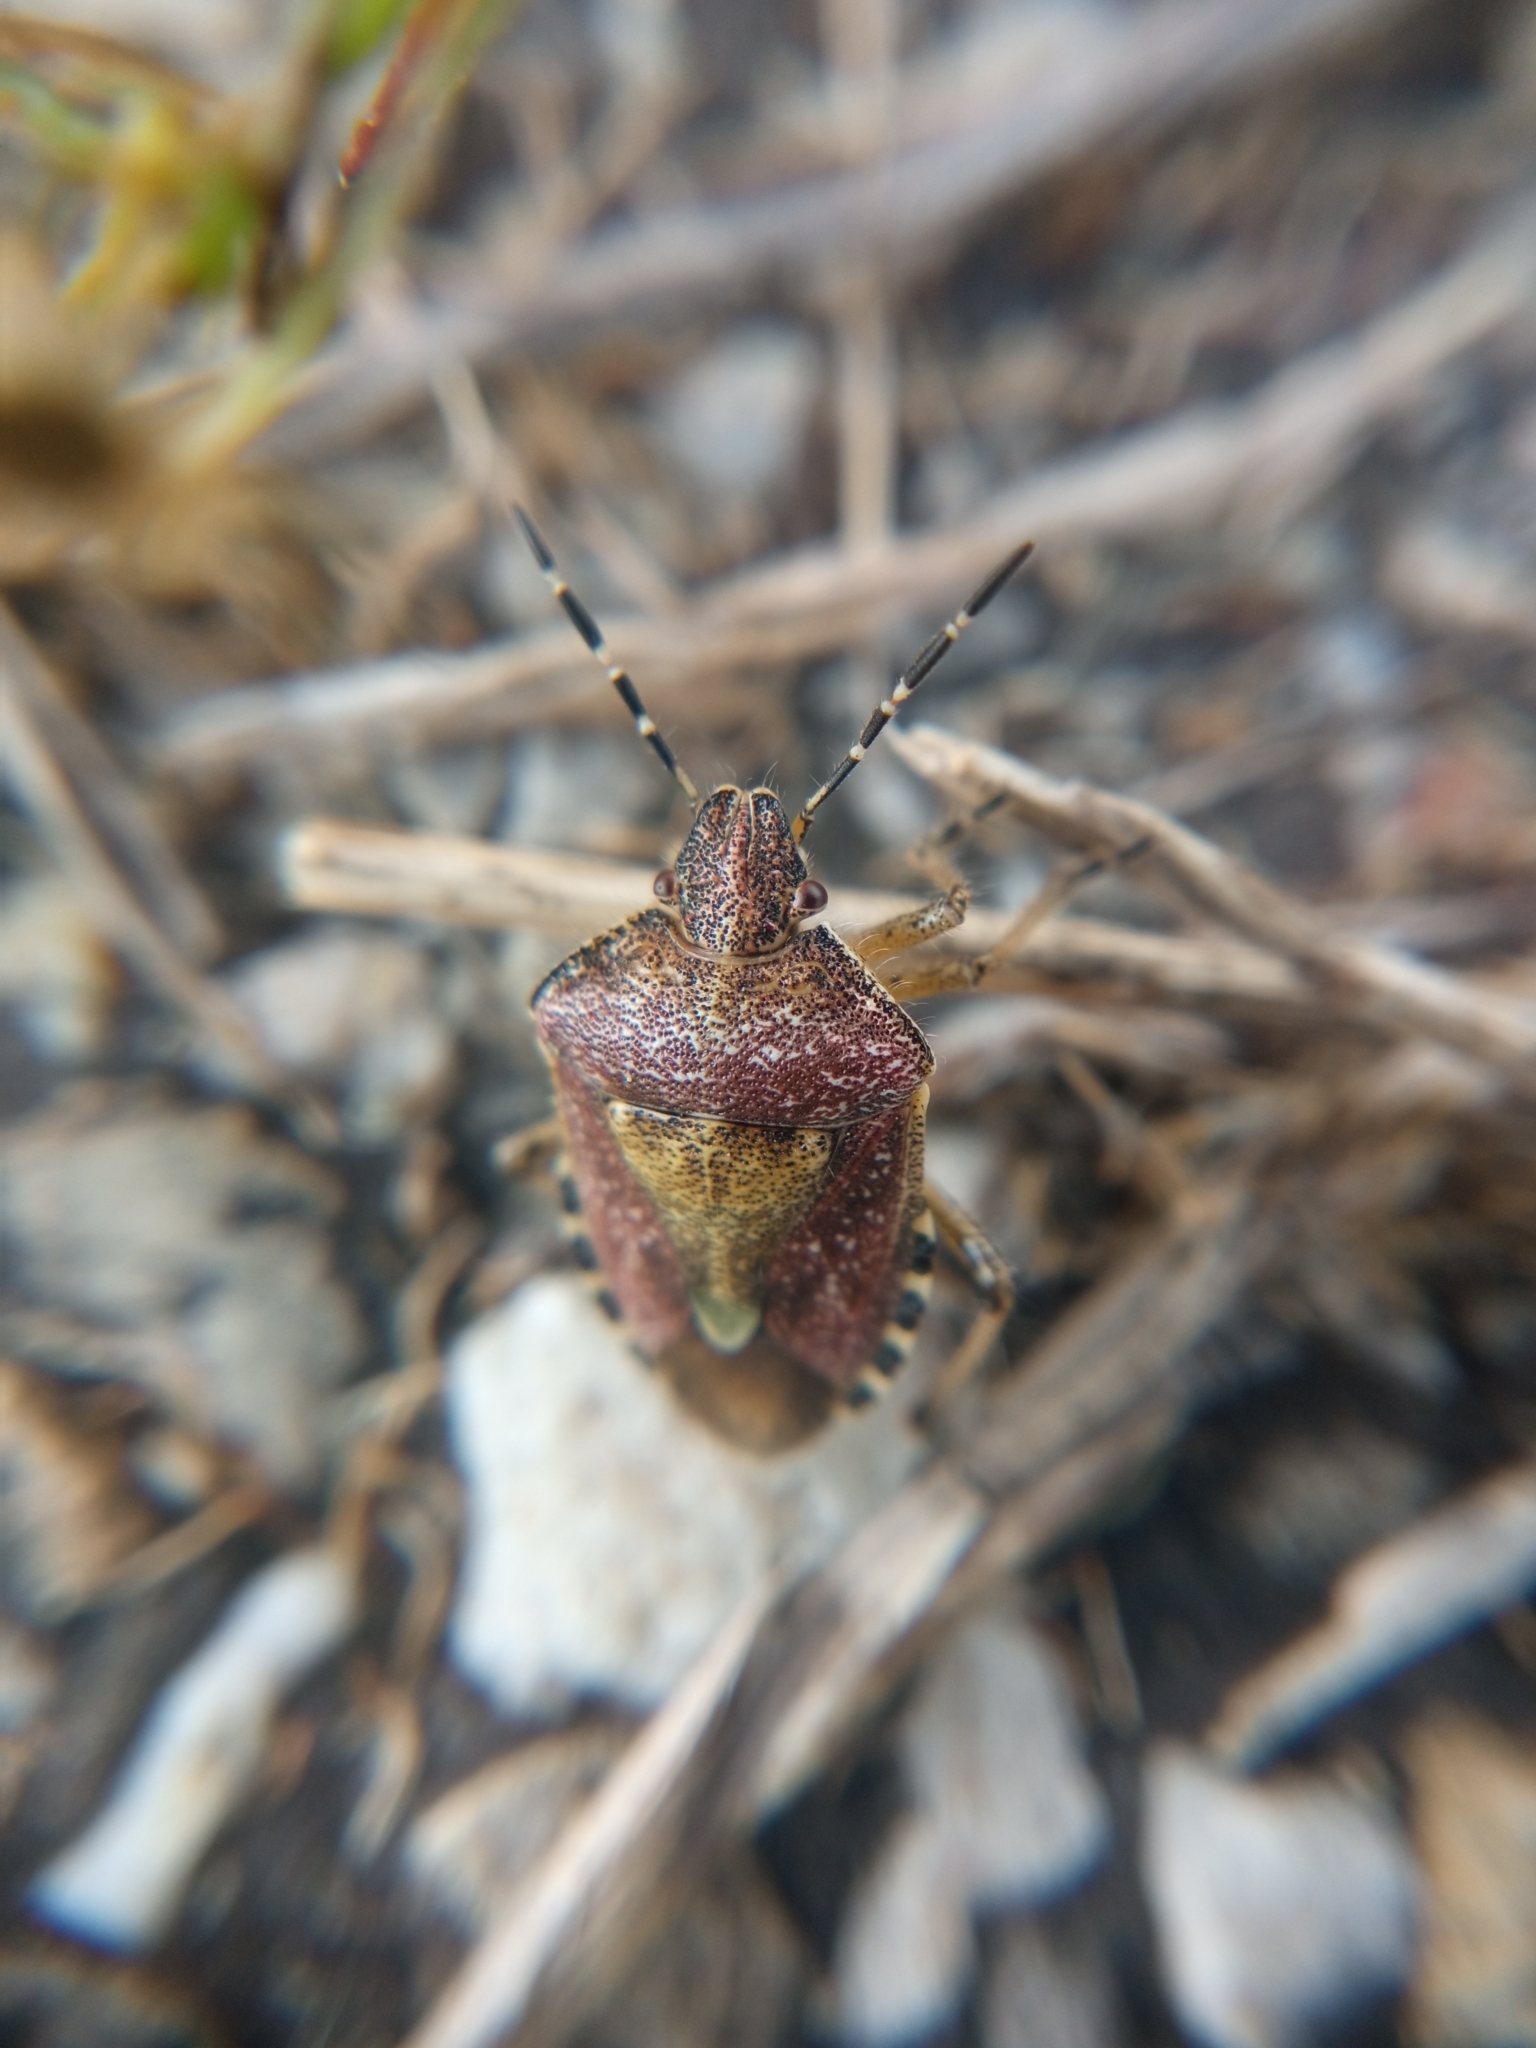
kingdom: Animalia
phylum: Arthropoda
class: Insecta
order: Hemiptera
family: Pentatomidae
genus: Dolycoris
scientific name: Dolycoris baccarum
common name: Sloe bug
